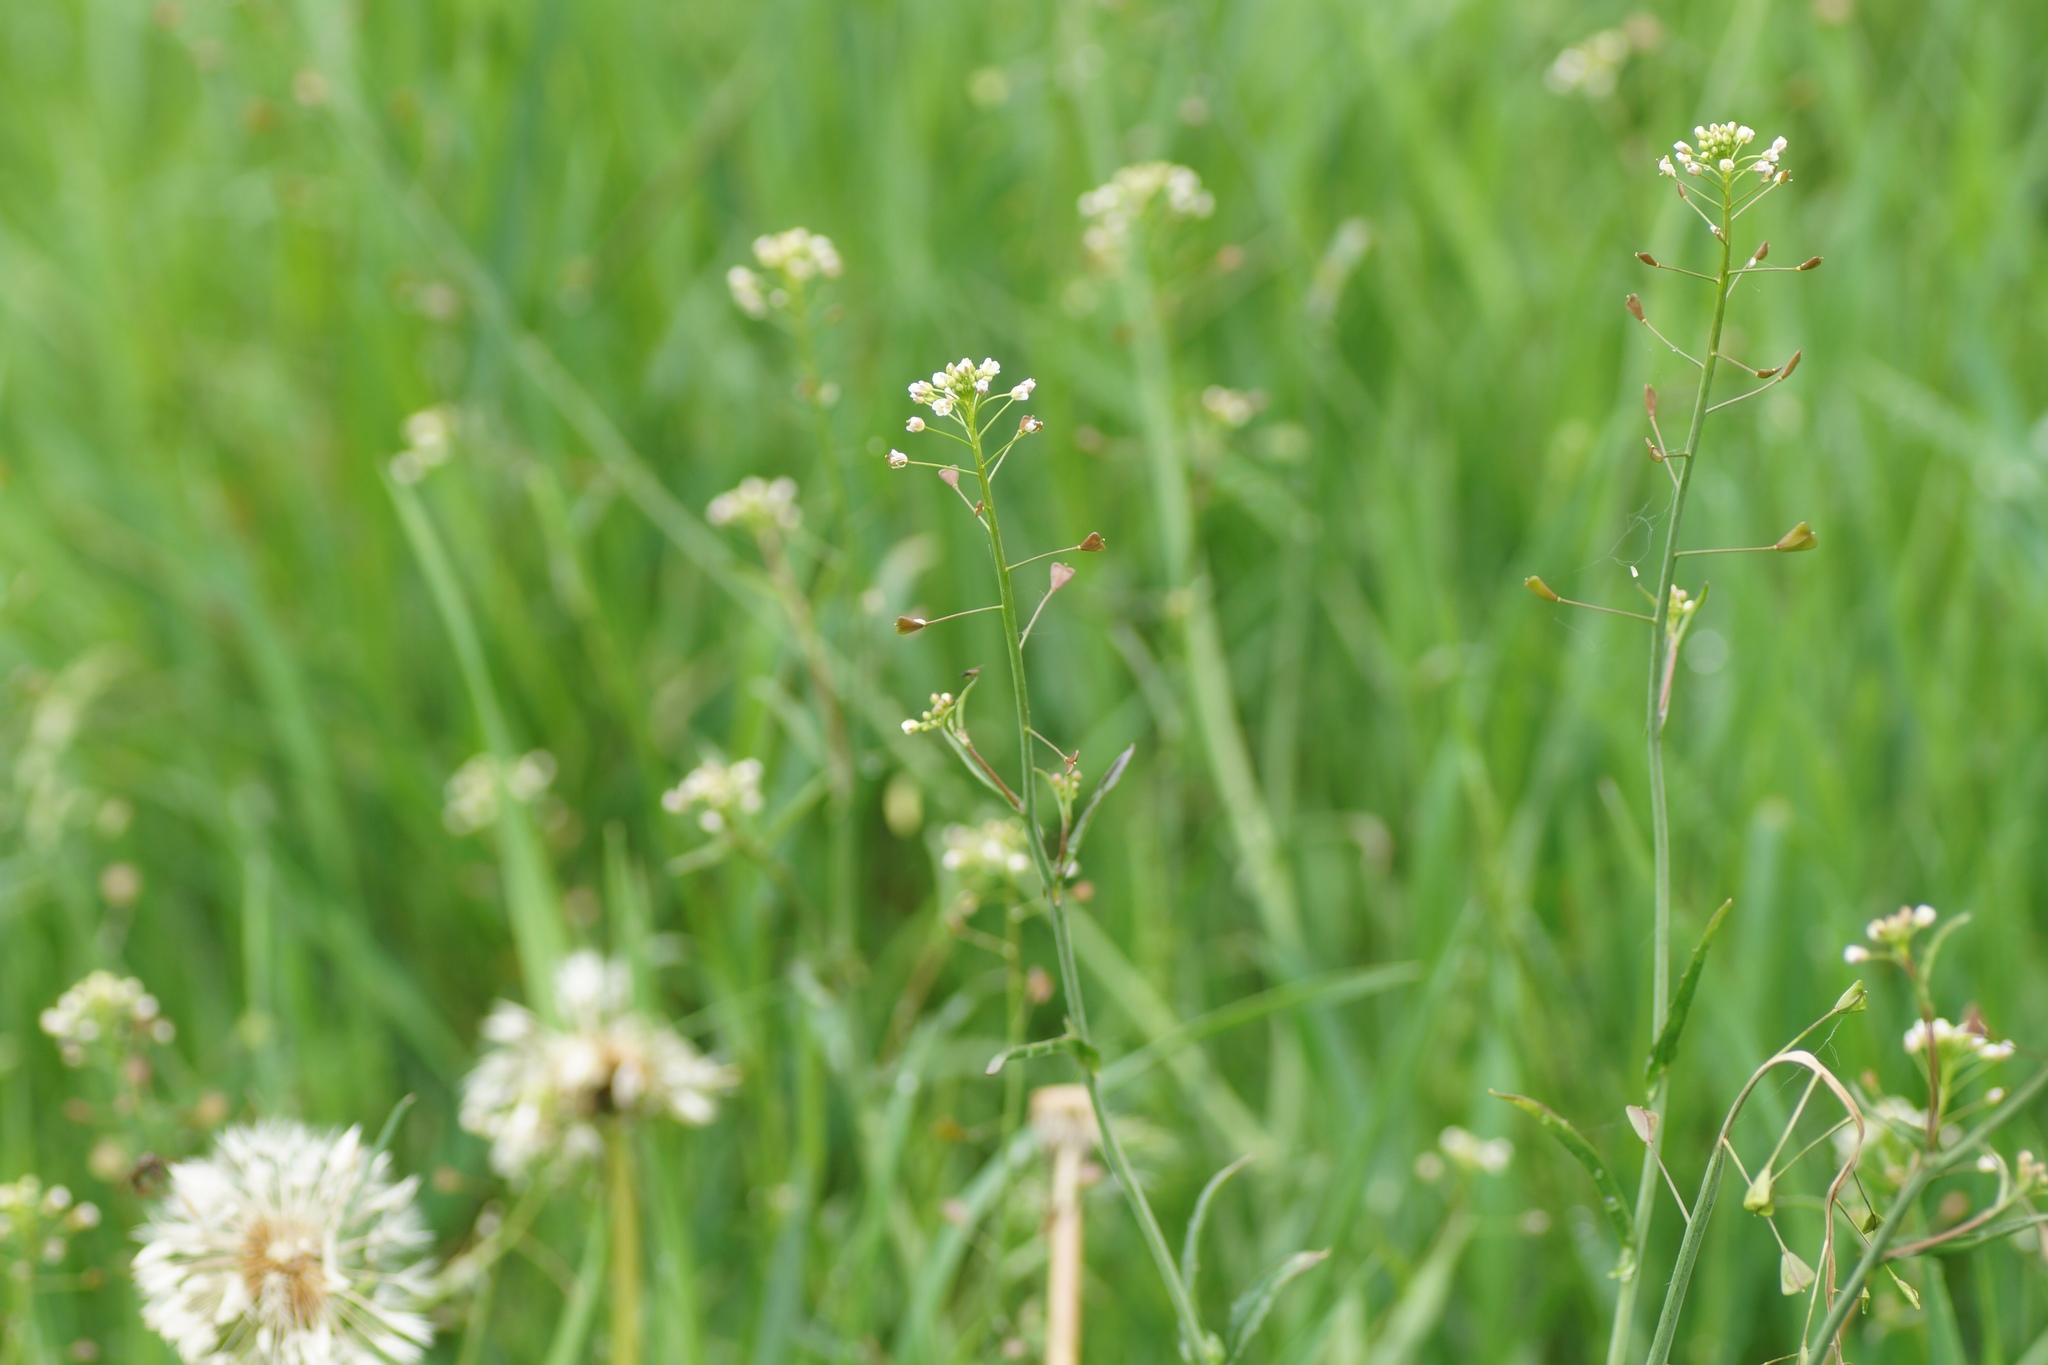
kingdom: Plantae
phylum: Tracheophyta
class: Magnoliopsida
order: Brassicales
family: Brassicaceae
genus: Capsella
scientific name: Capsella bursa-pastoris
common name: Shepherd's purse
